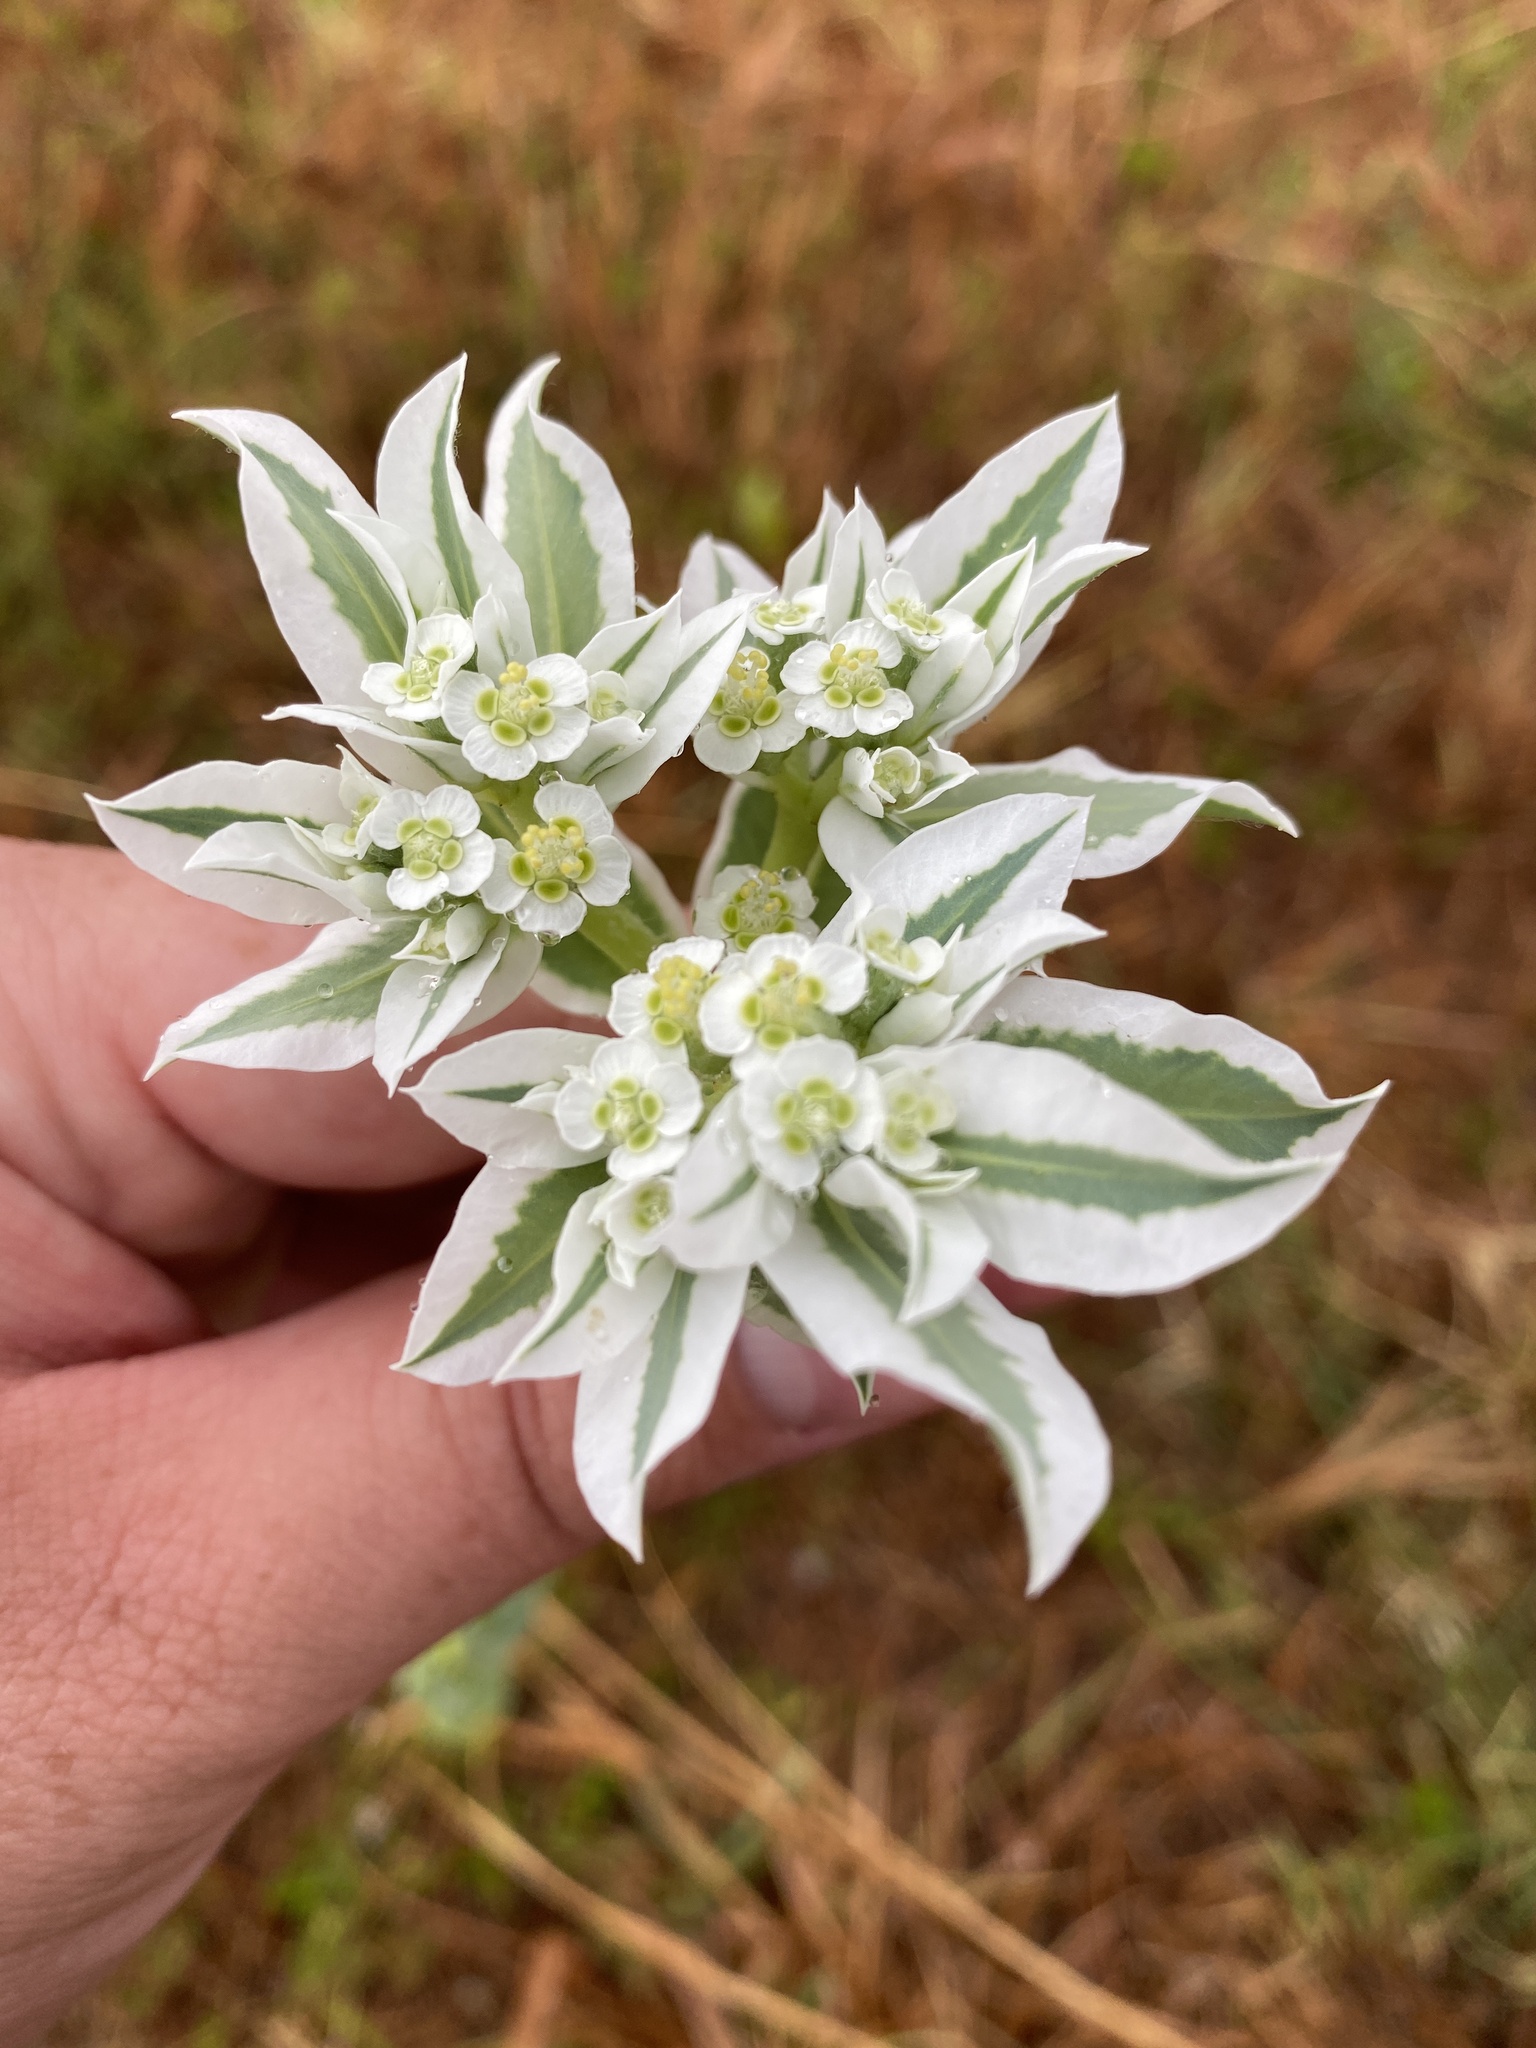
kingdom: Plantae
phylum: Tracheophyta
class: Magnoliopsida
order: Malpighiales
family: Euphorbiaceae
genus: Euphorbia
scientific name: Euphorbia marginata
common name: Ghostweed
